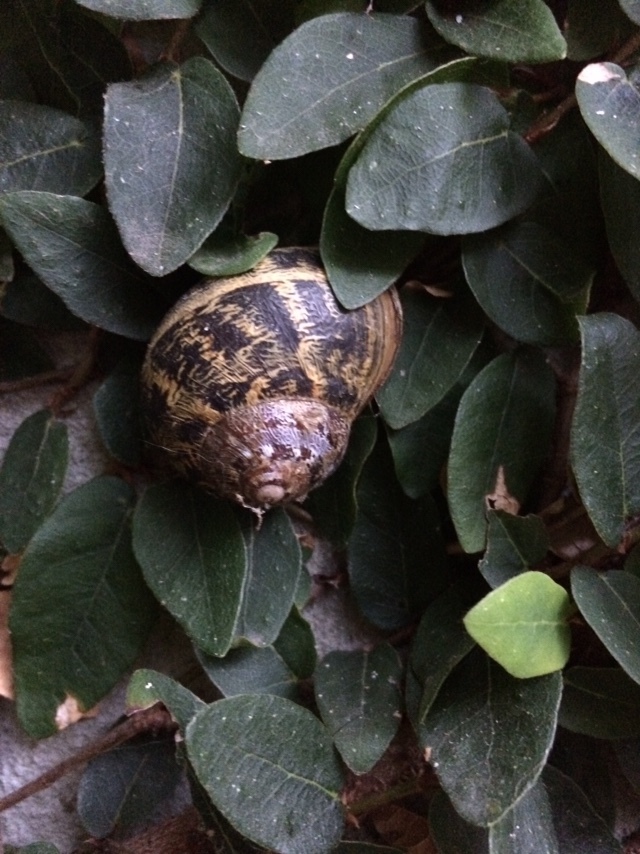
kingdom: Animalia
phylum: Mollusca
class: Gastropoda
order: Stylommatophora
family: Helicidae
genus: Cornu
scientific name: Cornu aspersum
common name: Brown garden snail
